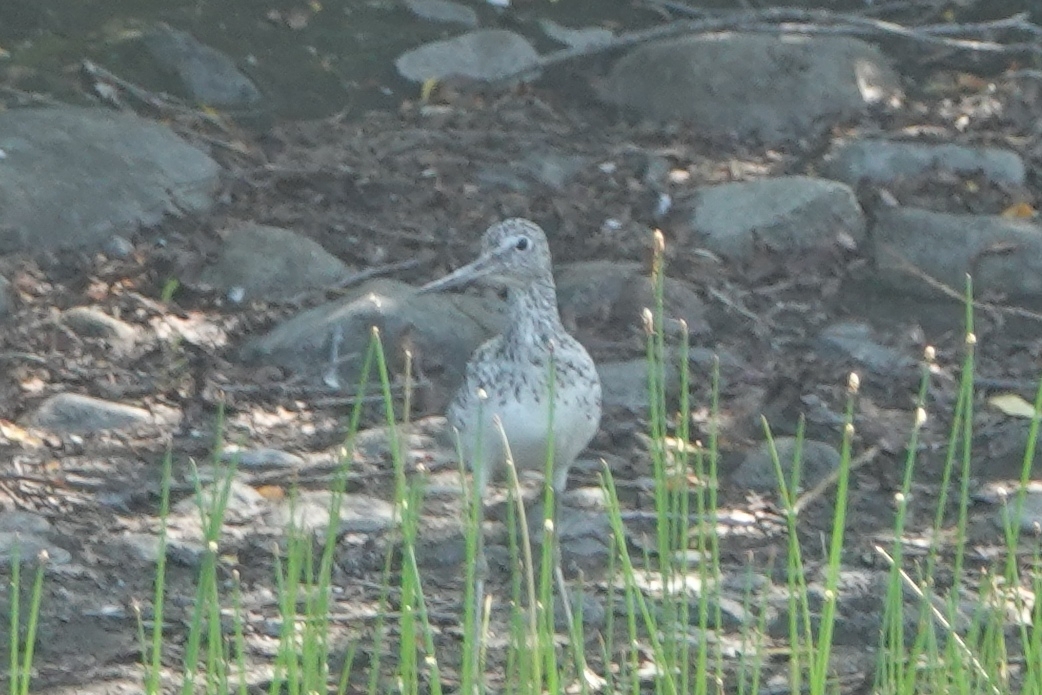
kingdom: Animalia
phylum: Chordata
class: Aves
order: Charadriiformes
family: Scolopacidae
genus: Tringa
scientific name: Tringa nebularia
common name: Common greenshank
